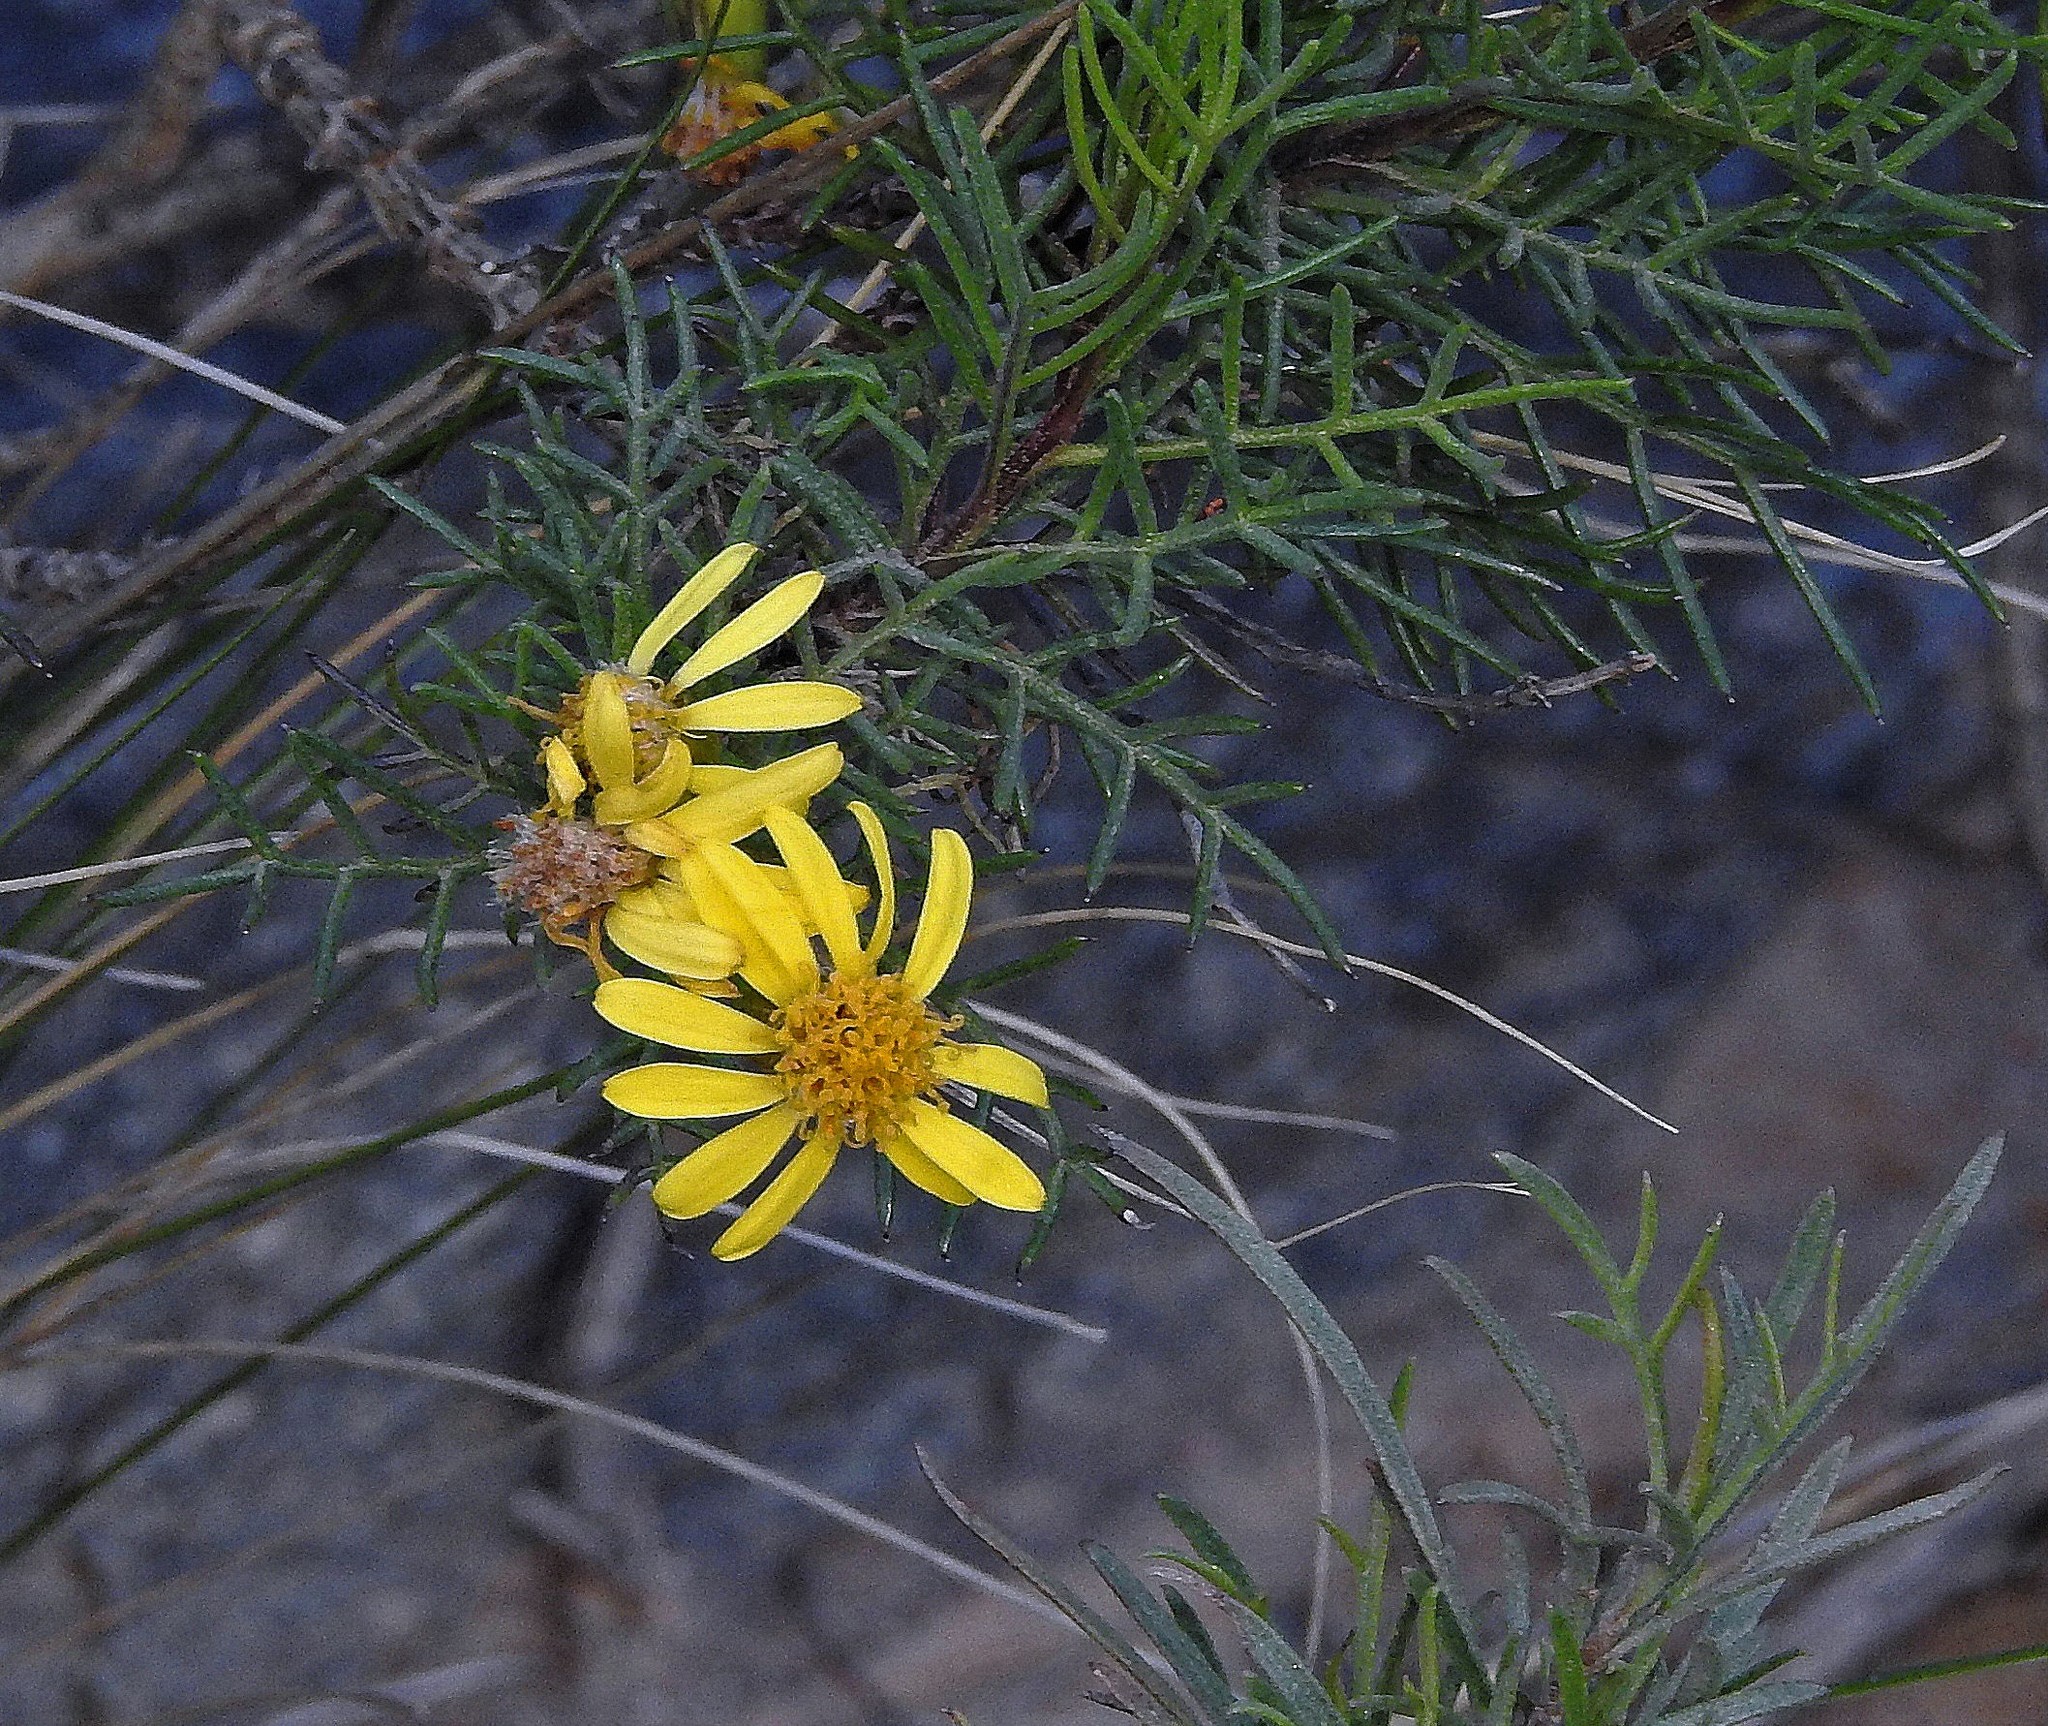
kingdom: Plantae
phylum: Tracheophyta
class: Magnoliopsida
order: Asterales
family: Asteraceae
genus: Senecio
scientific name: Senecio rudbeckiifolius
